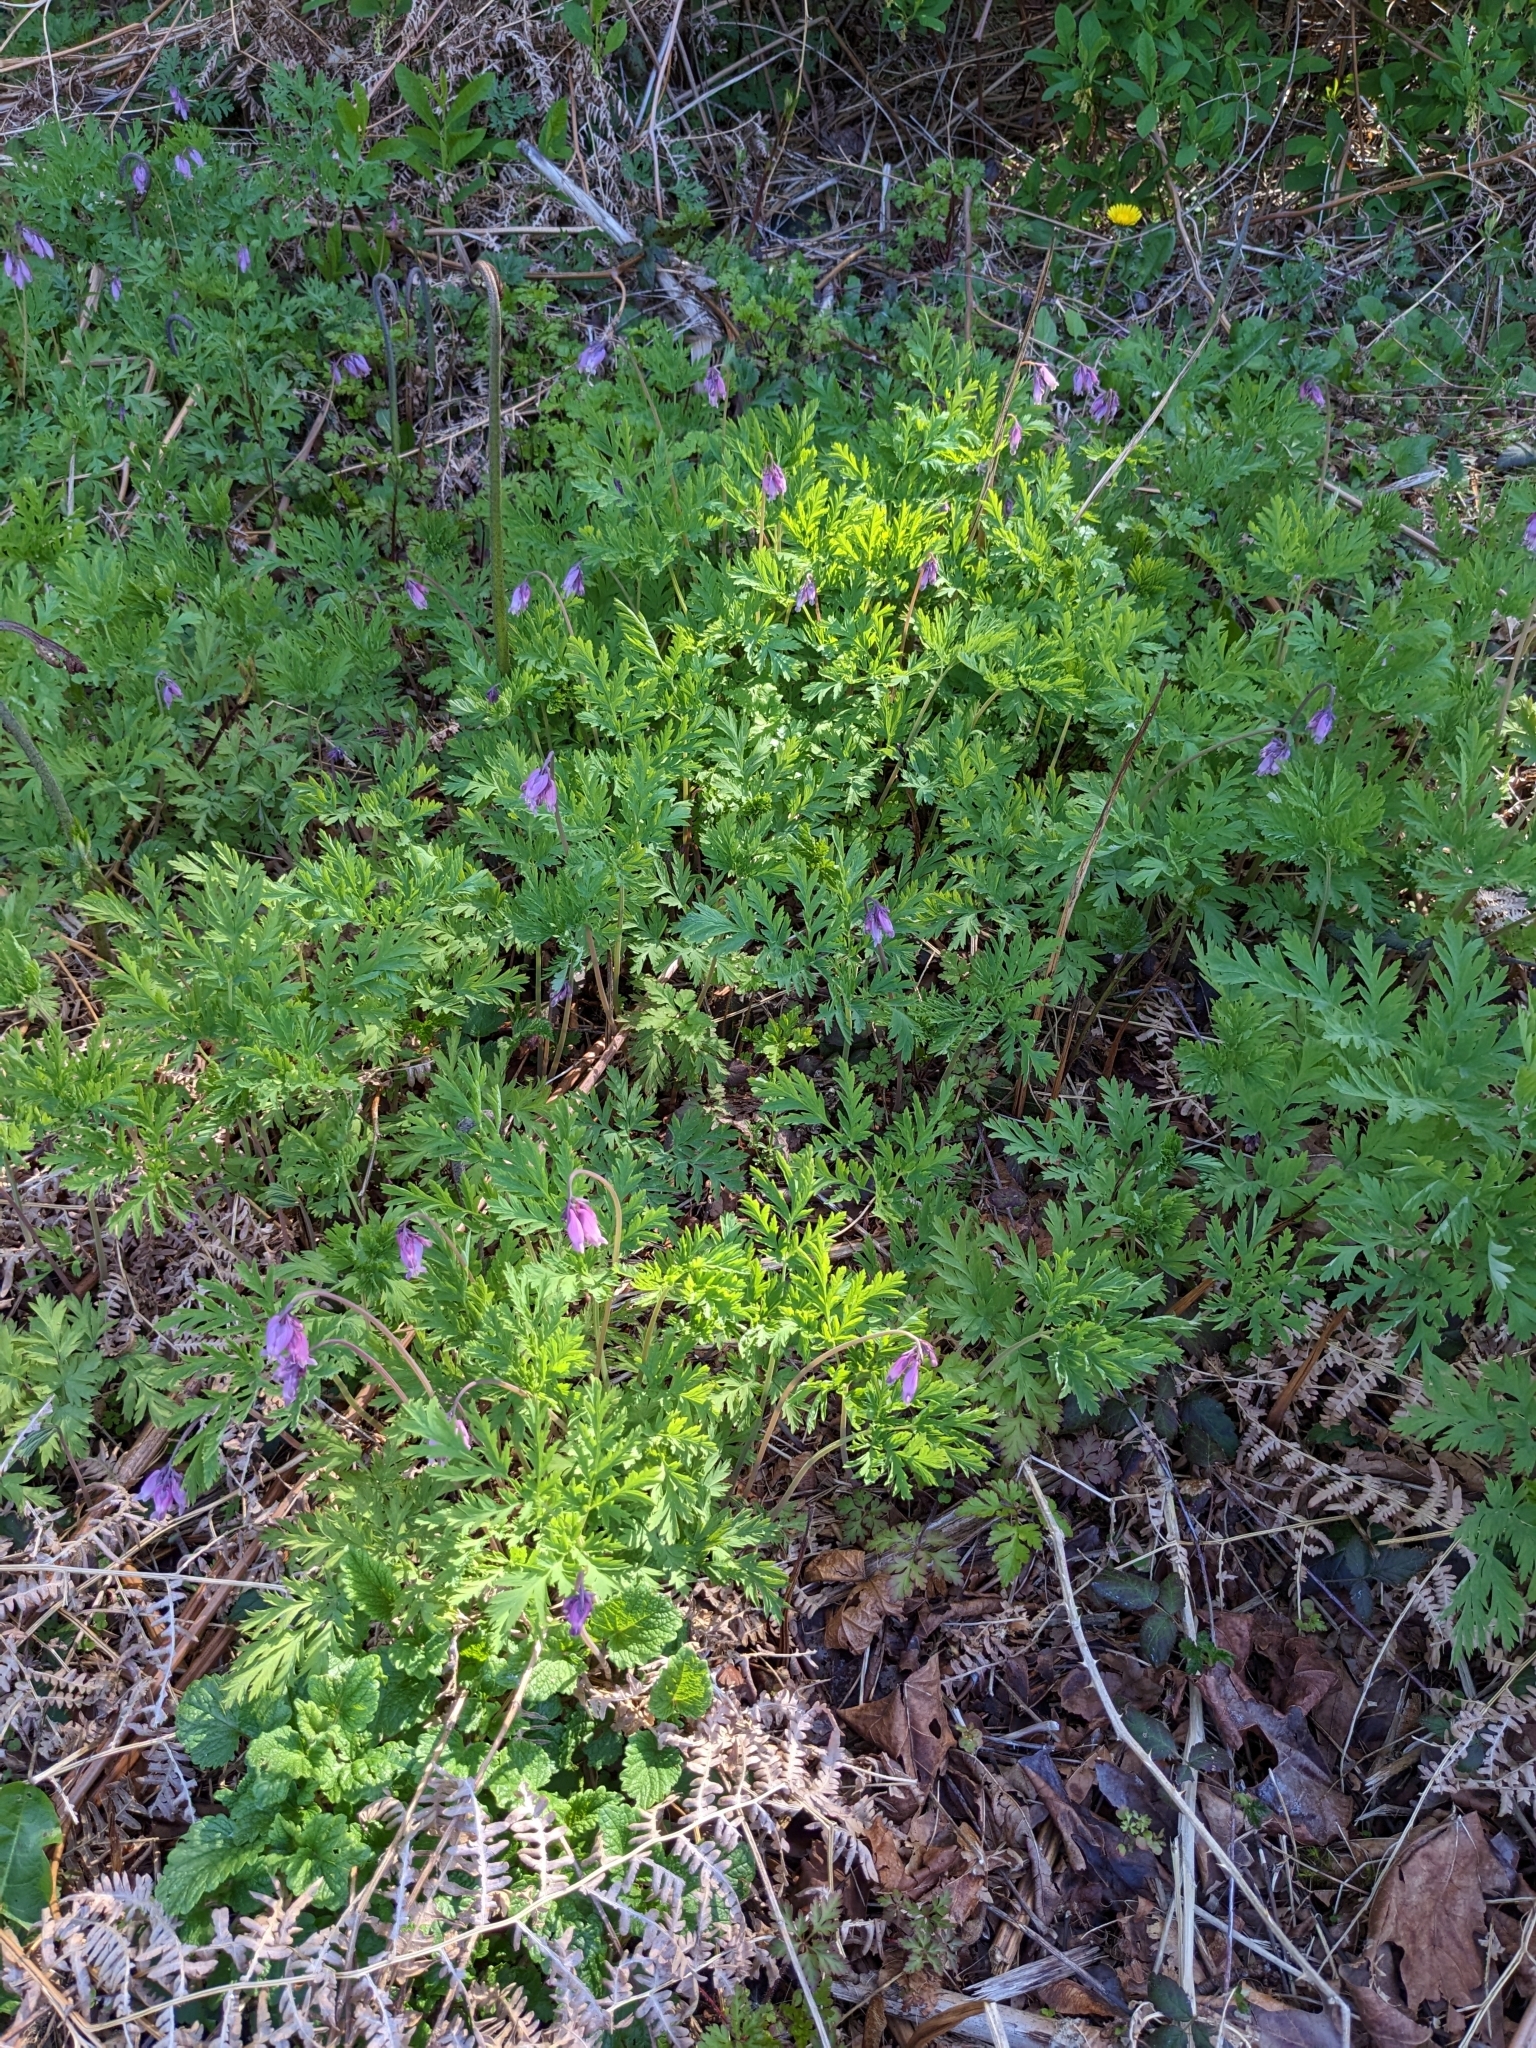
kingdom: Plantae
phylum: Tracheophyta
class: Magnoliopsida
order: Ranunculales
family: Papaveraceae
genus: Dicentra
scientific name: Dicentra formosa
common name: Bleeding-heart
